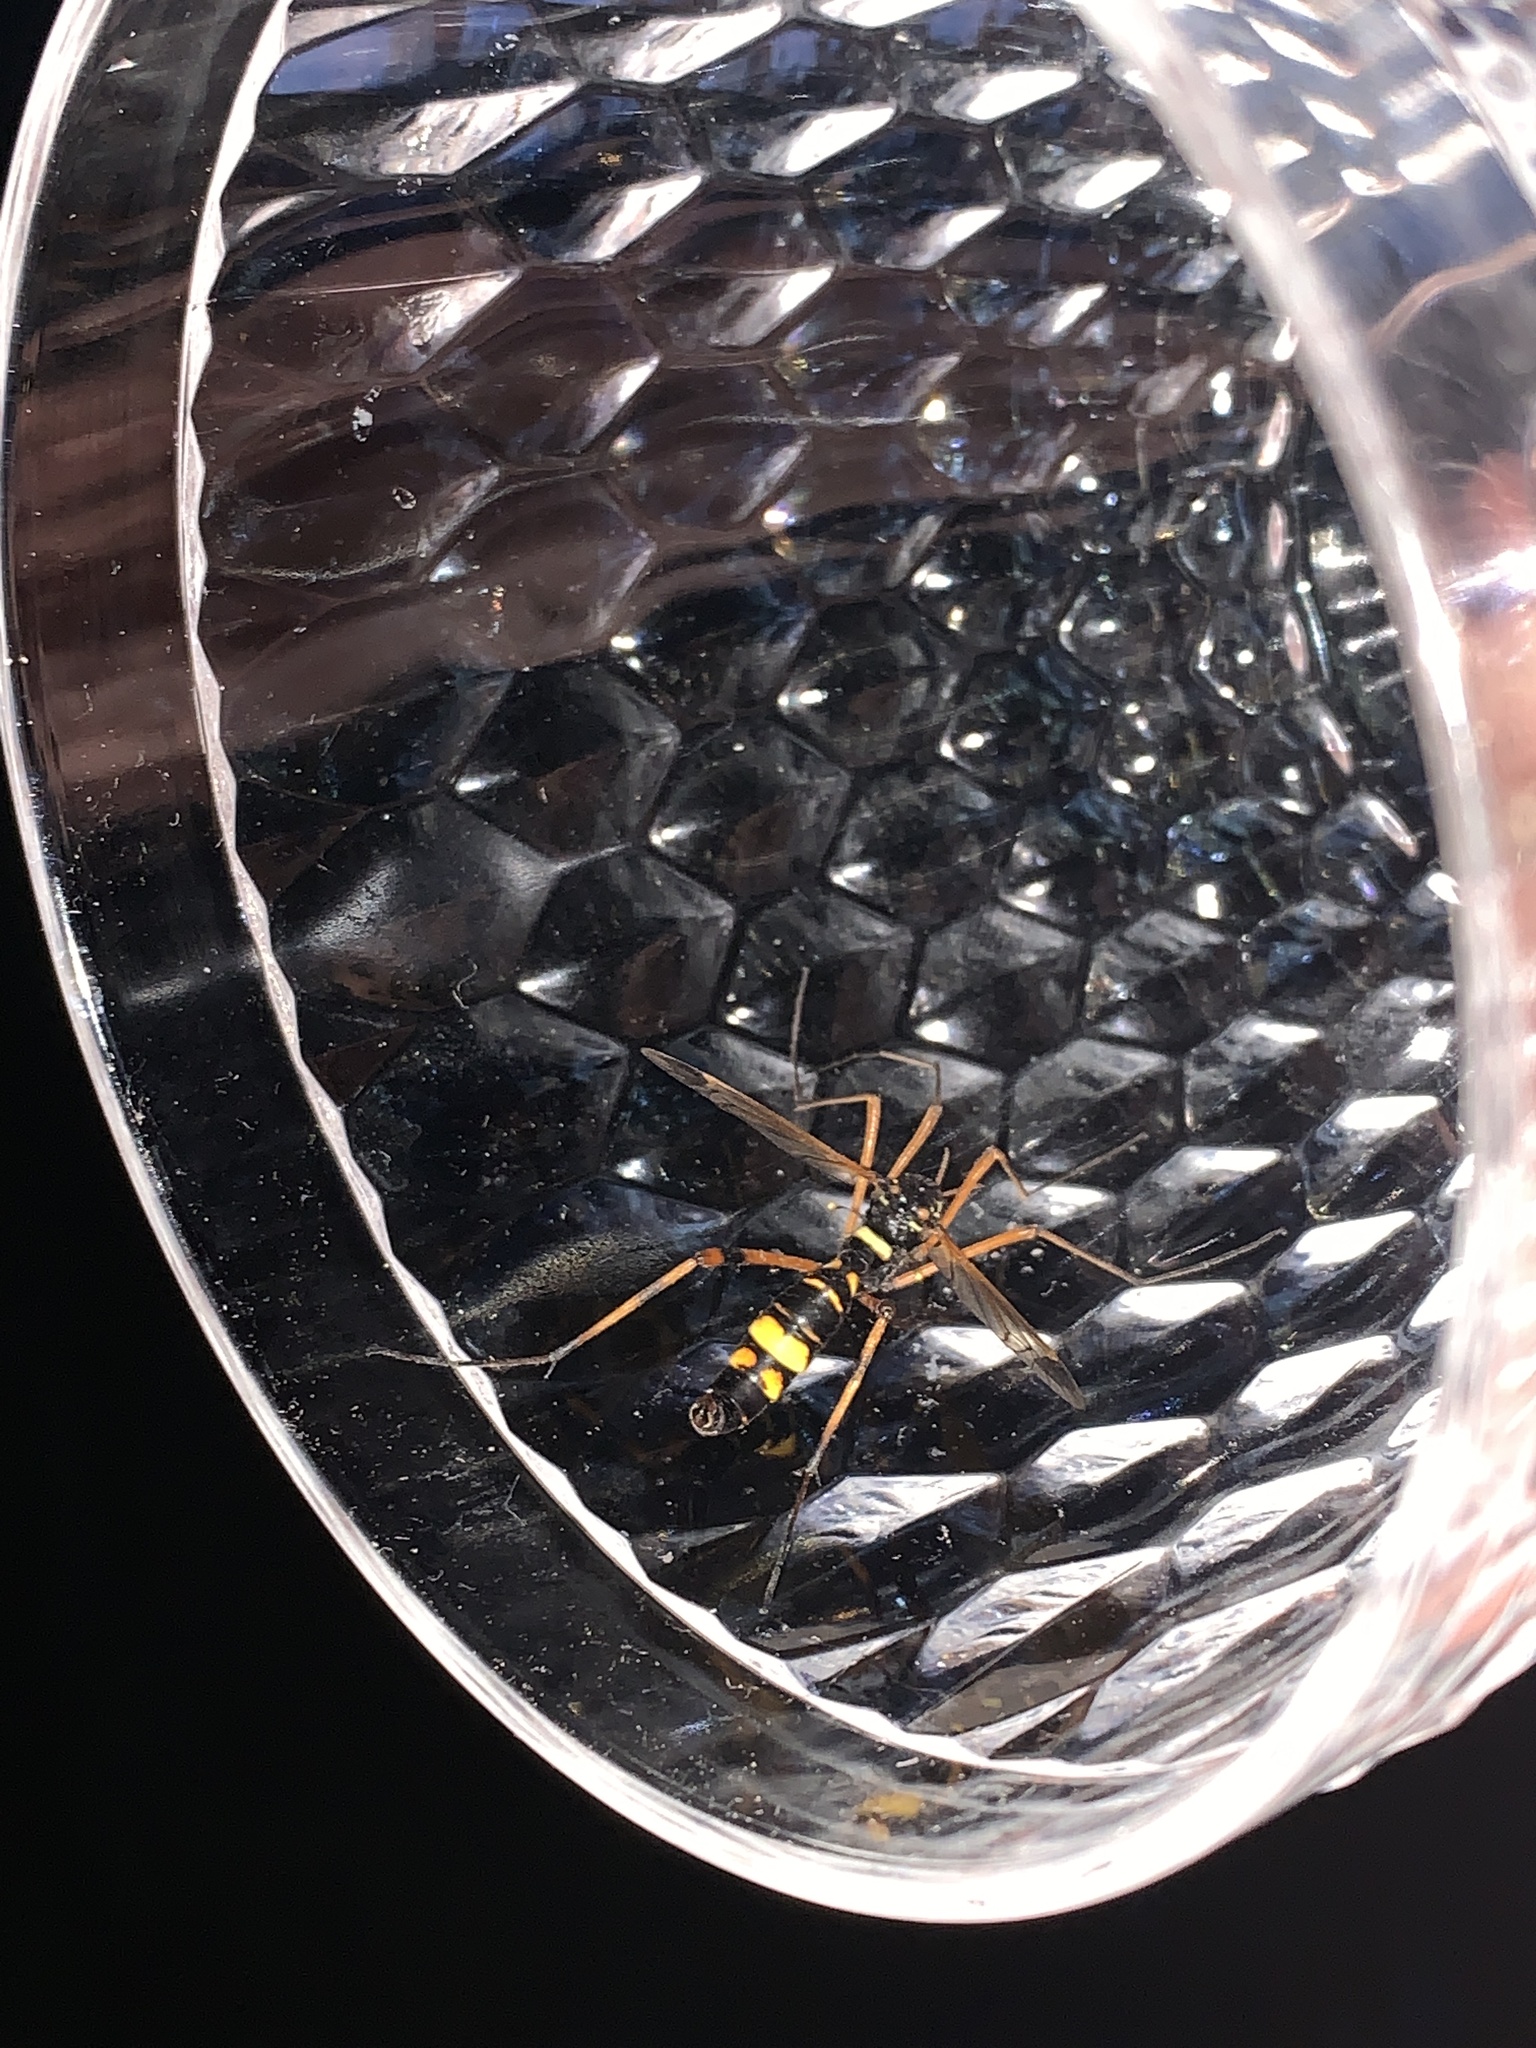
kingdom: Animalia
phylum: Arthropoda
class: Insecta
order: Diptera
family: Tipulidae
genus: Ctenophora
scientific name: Ctenophora festiva
